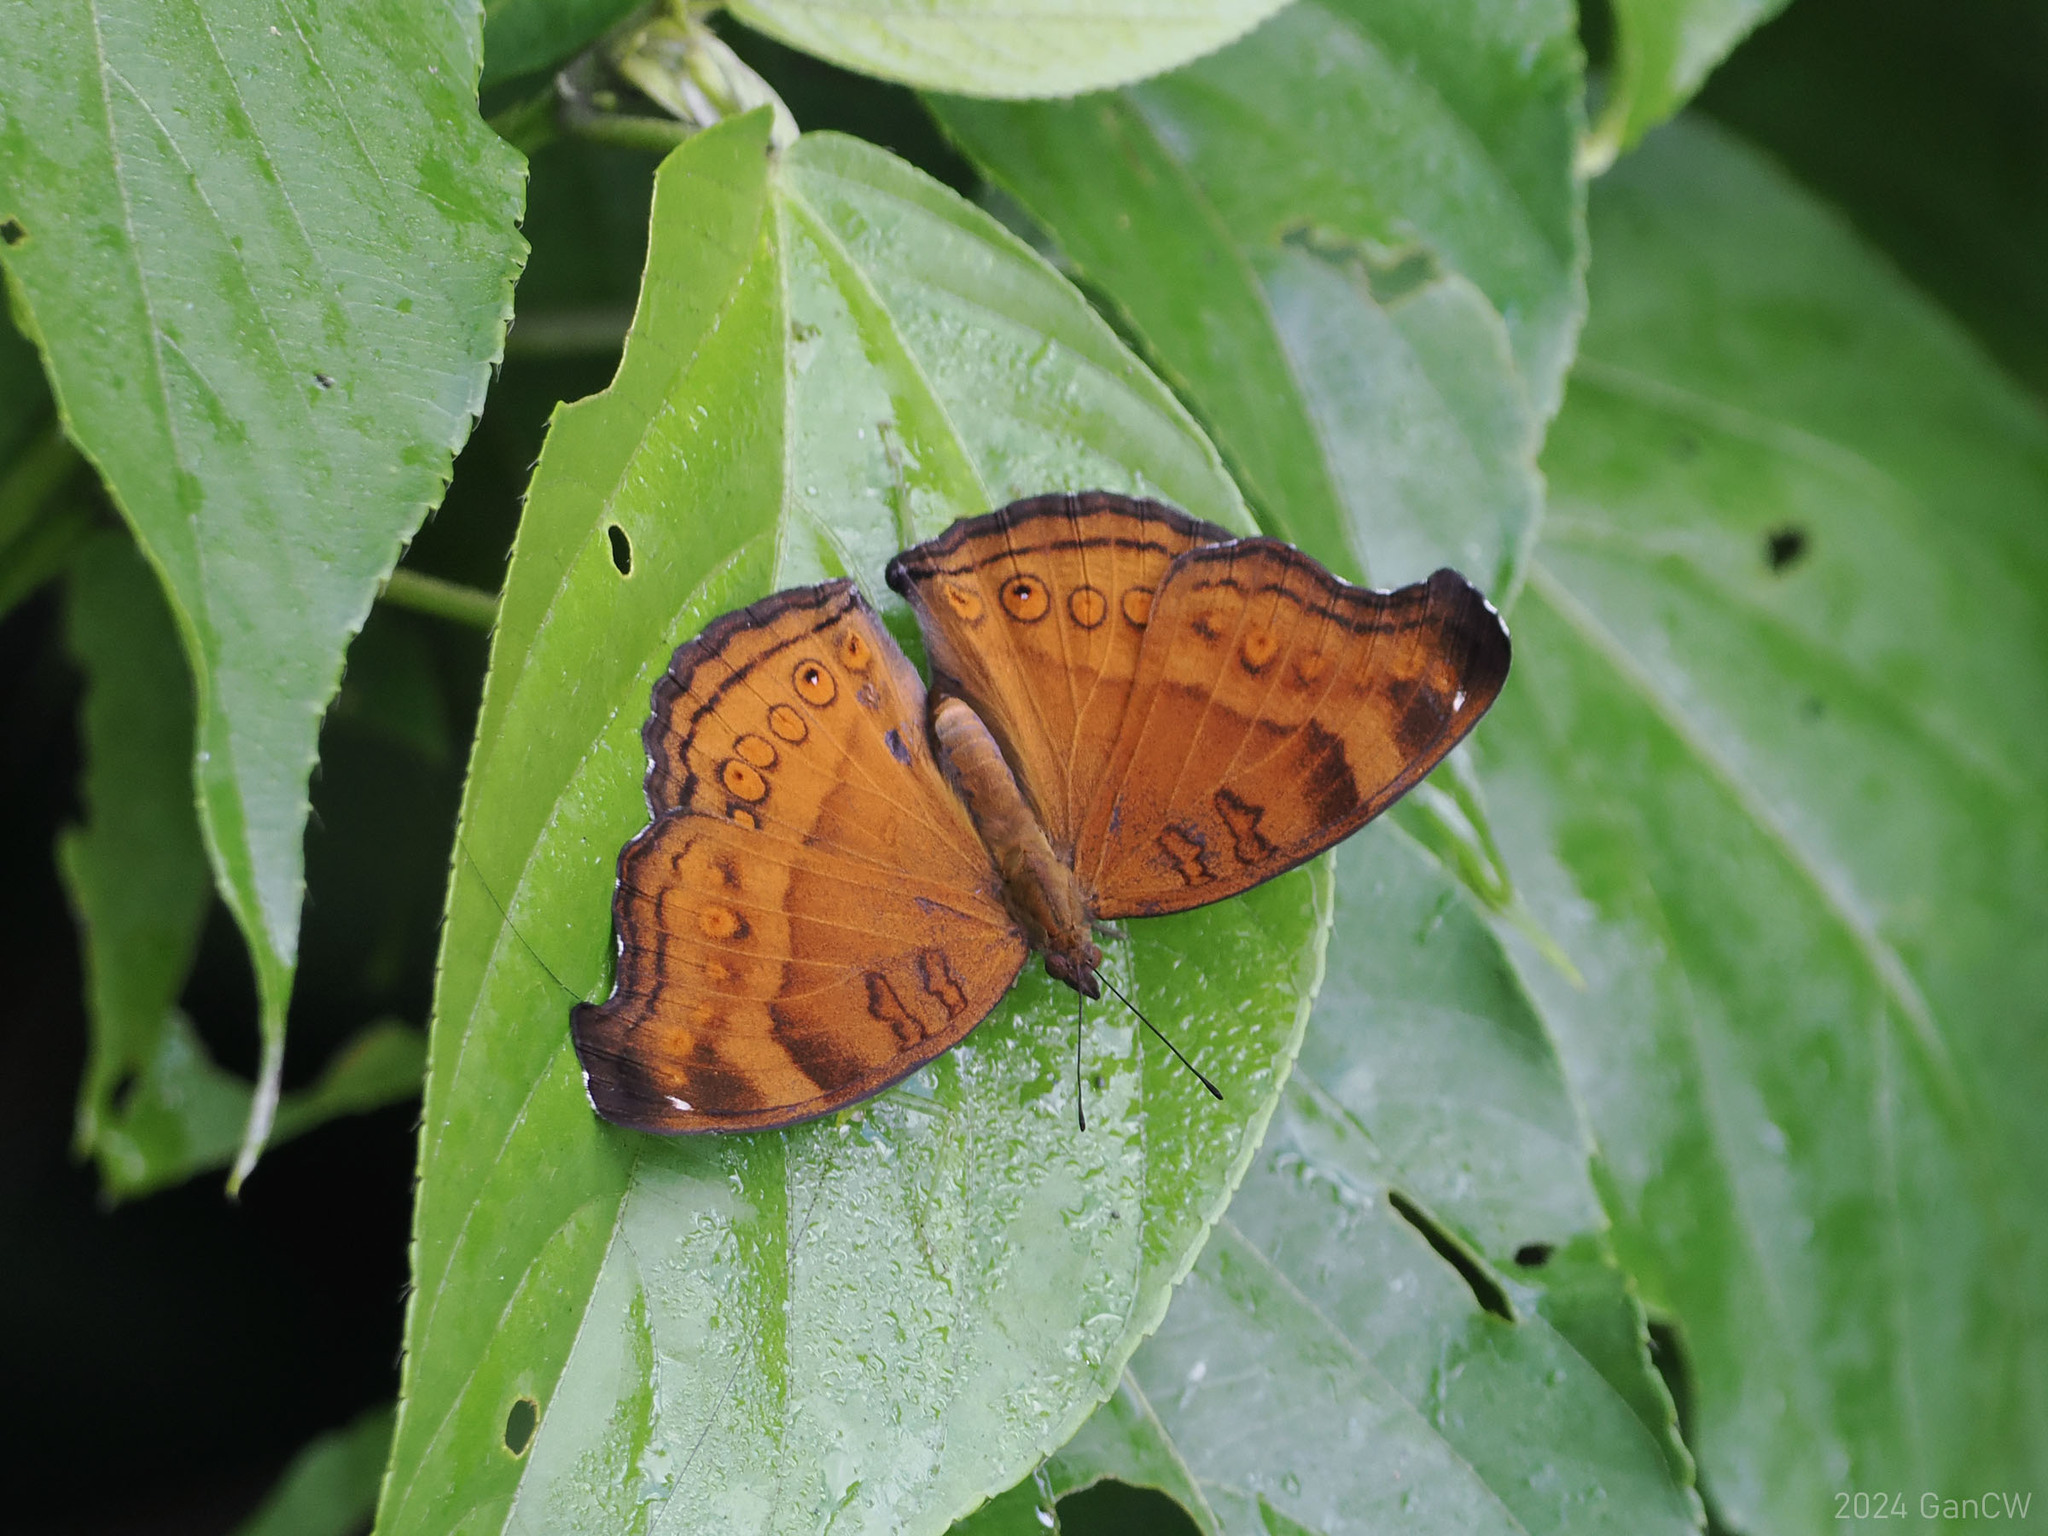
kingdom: Animalia
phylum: Arthropoda
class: Insecta
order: Lepidoptera
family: Nymphalidae
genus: Junonia
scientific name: Junonia hedonia
